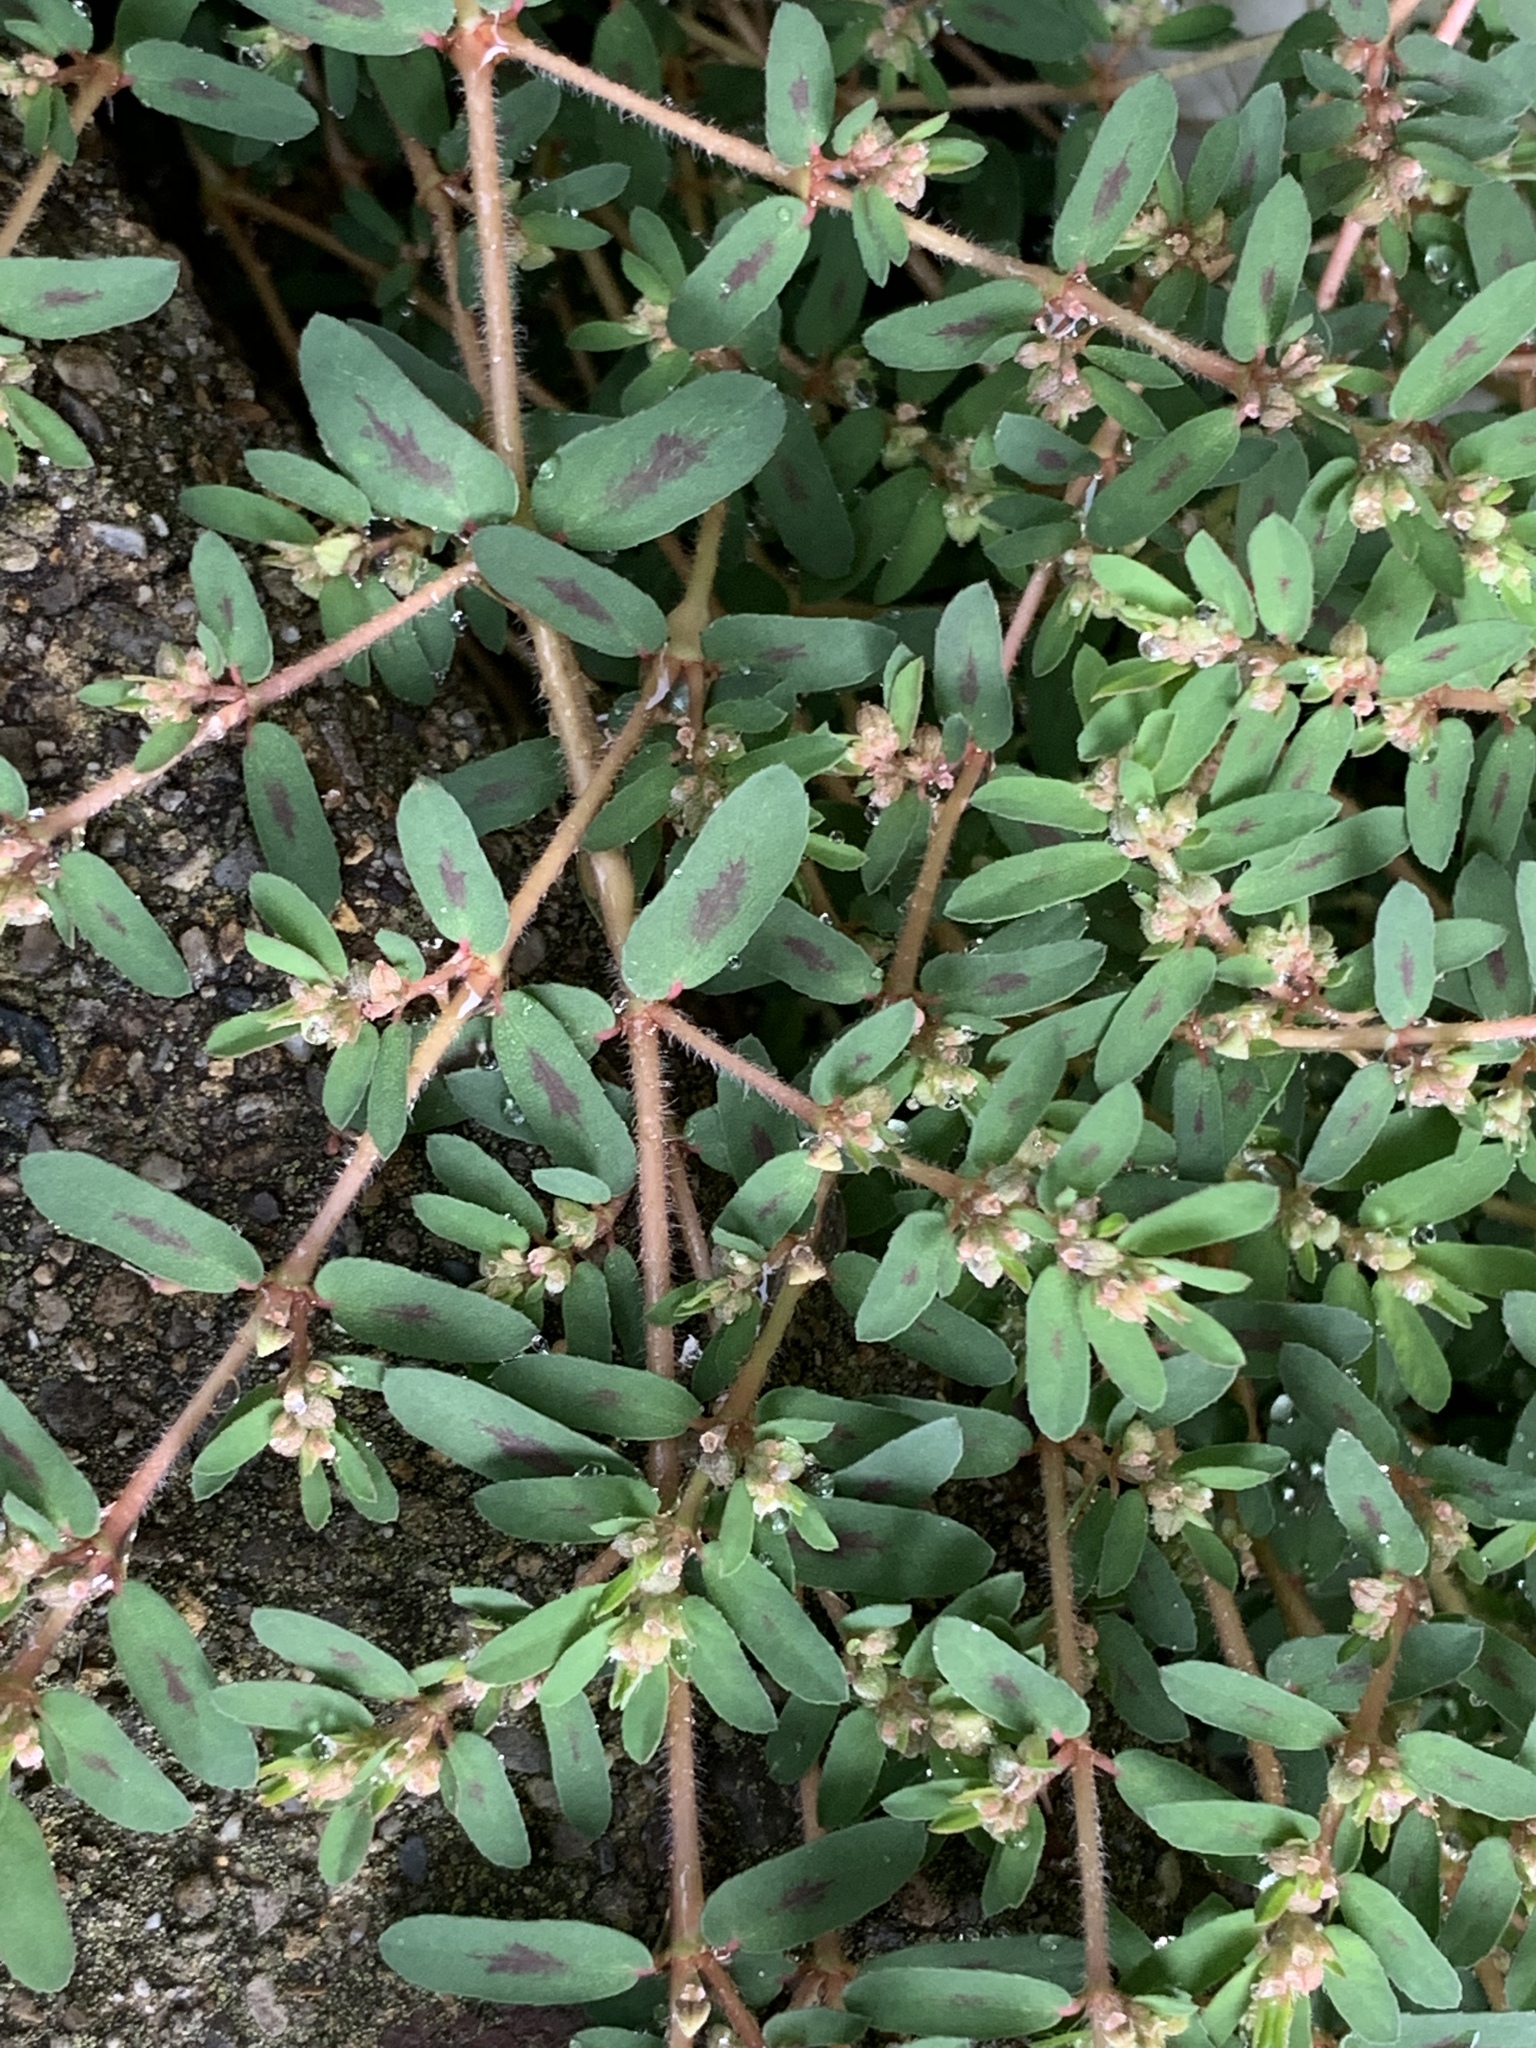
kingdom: Plantae
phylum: Tracheophyta
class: Magnoliopsida
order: Malpighiales
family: Euphorbiaceae
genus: Euphorbia
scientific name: Euphorbia maculata
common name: Spotted spurge
